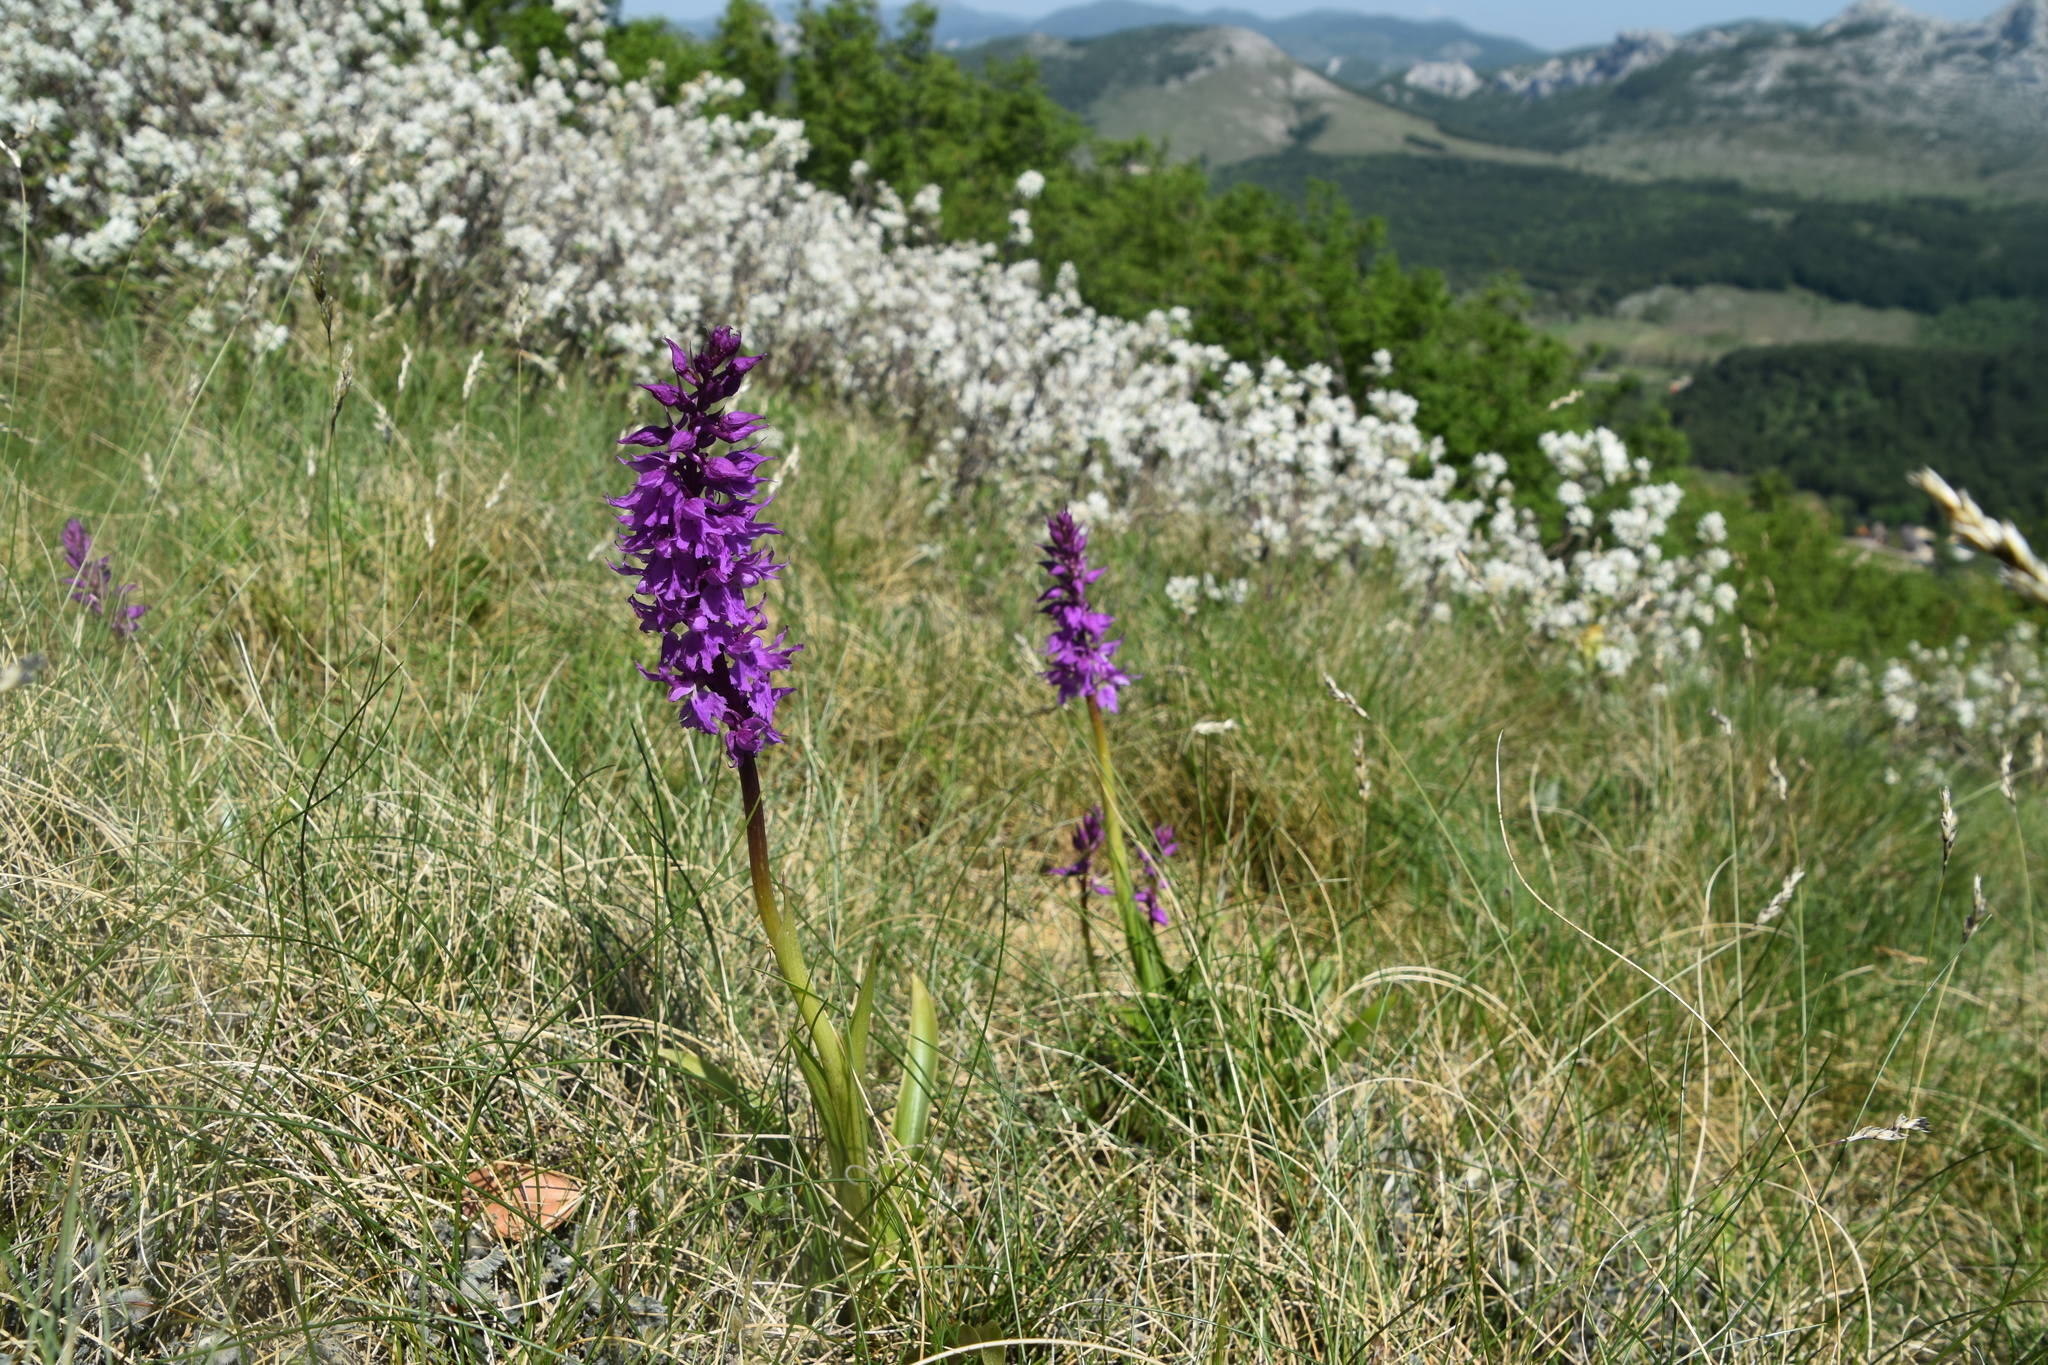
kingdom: Plantae
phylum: Tracheophyta
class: Liliopsida
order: Asparagales
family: Orchidaceae
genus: Orchis
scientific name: Orchis mascula
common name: Early-purple orchid
